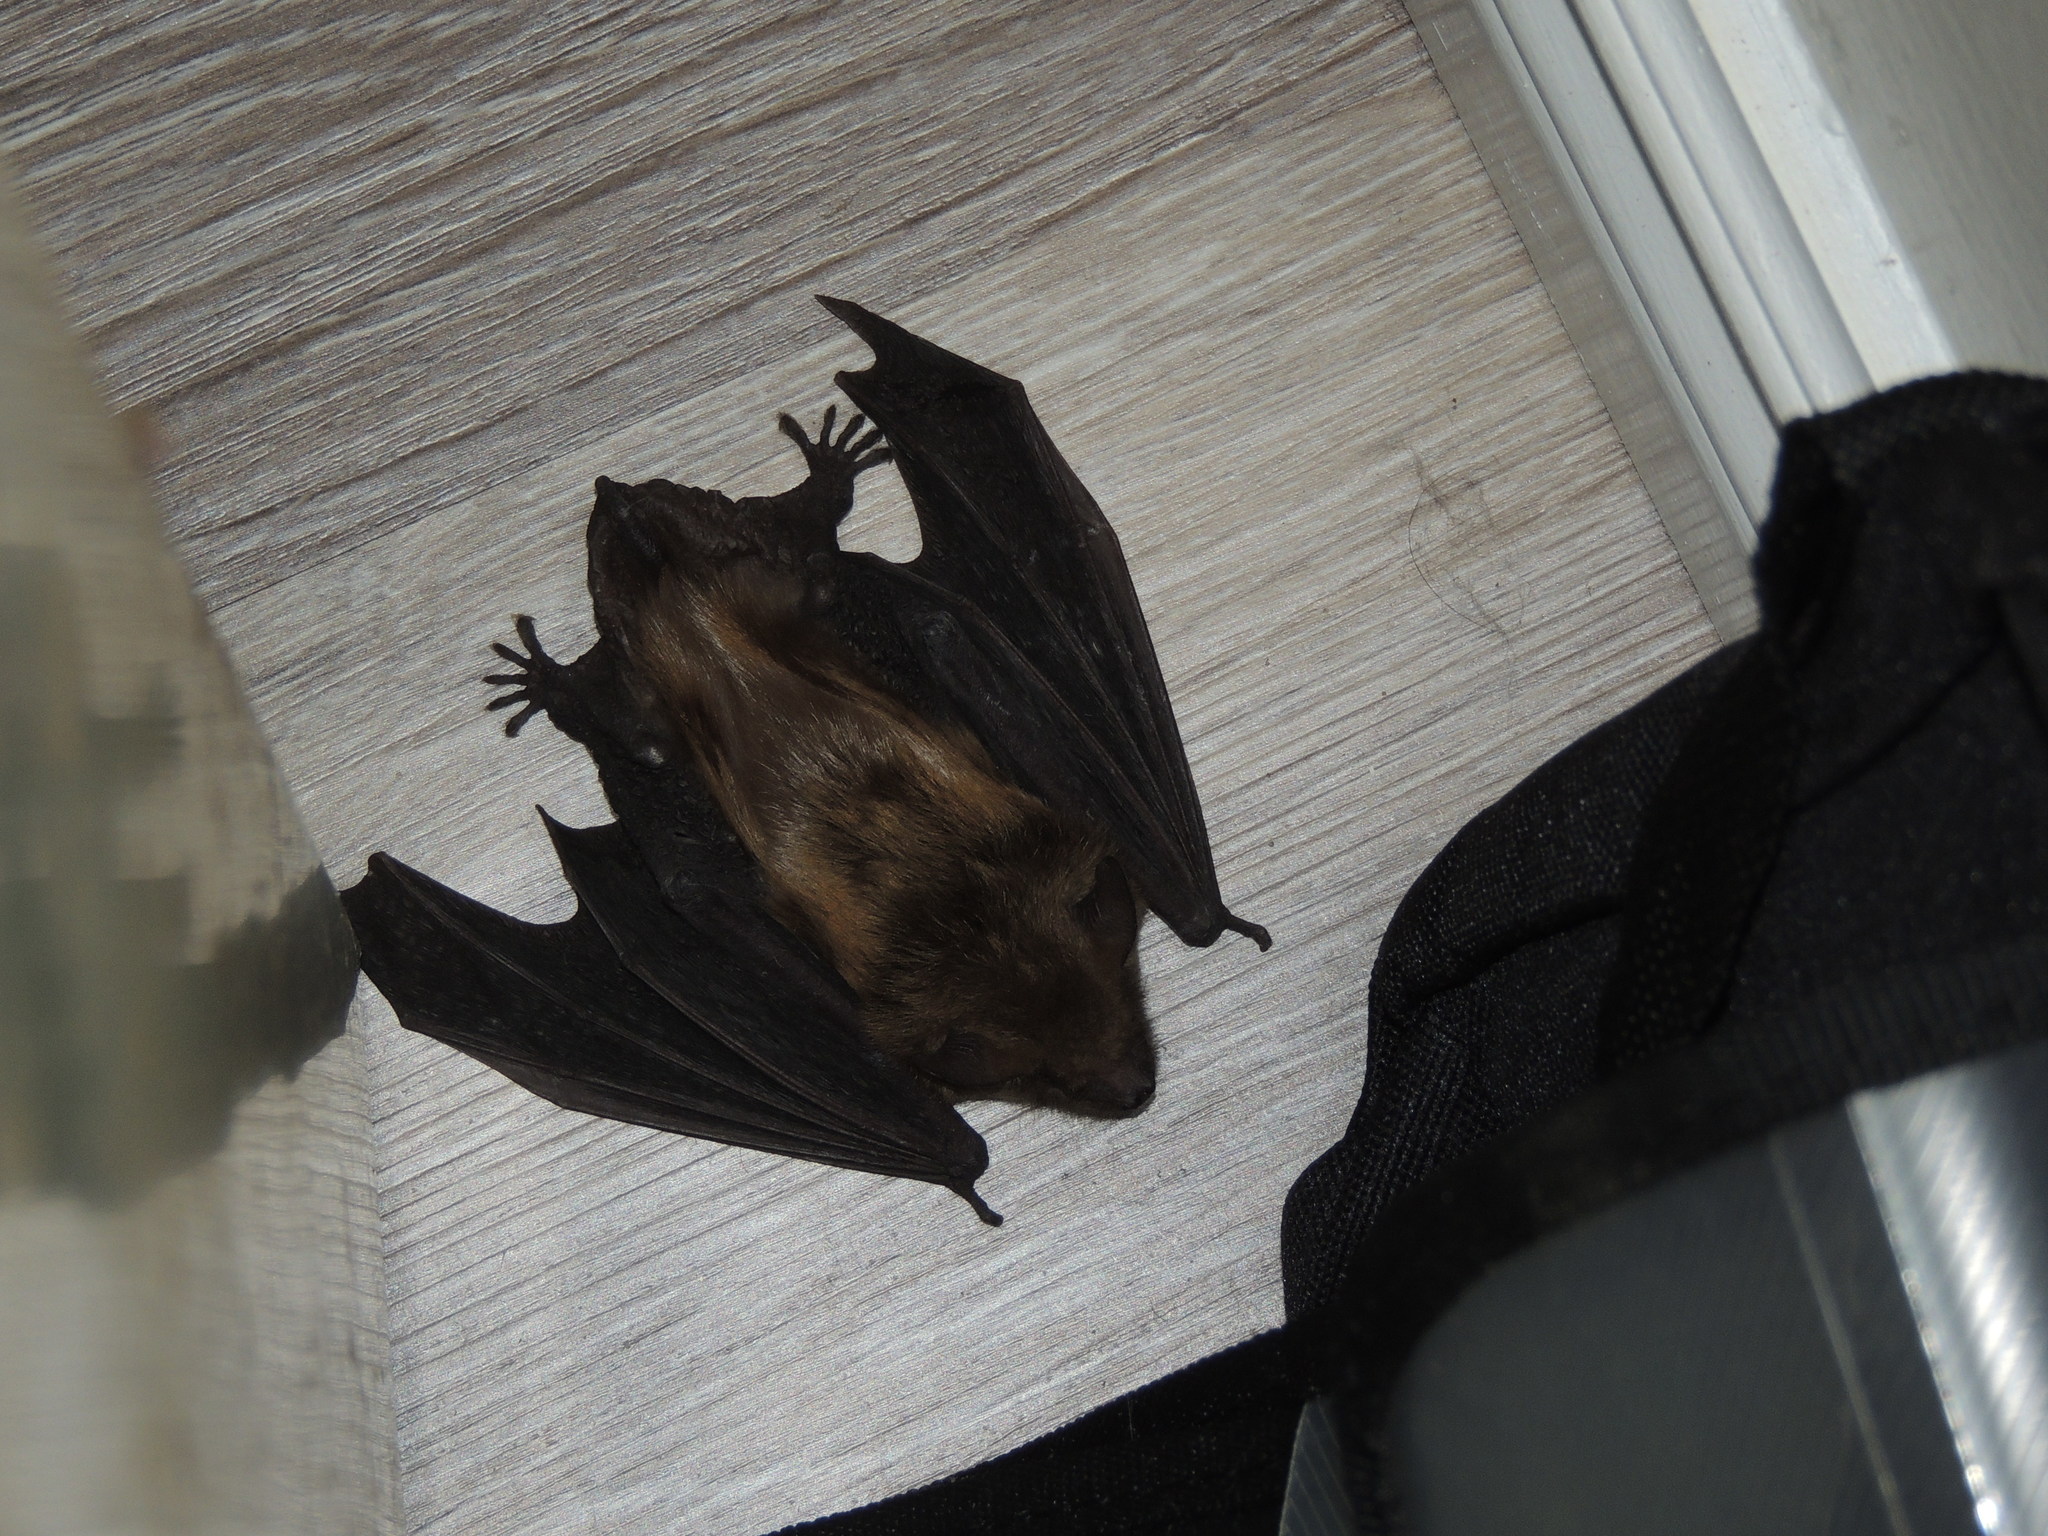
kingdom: Animalia
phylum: Chordata
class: Mammalia
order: Chiroptera
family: Vespertilionidae
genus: Eptesicus
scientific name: Eptesicus fuscus
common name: Big brown bat
